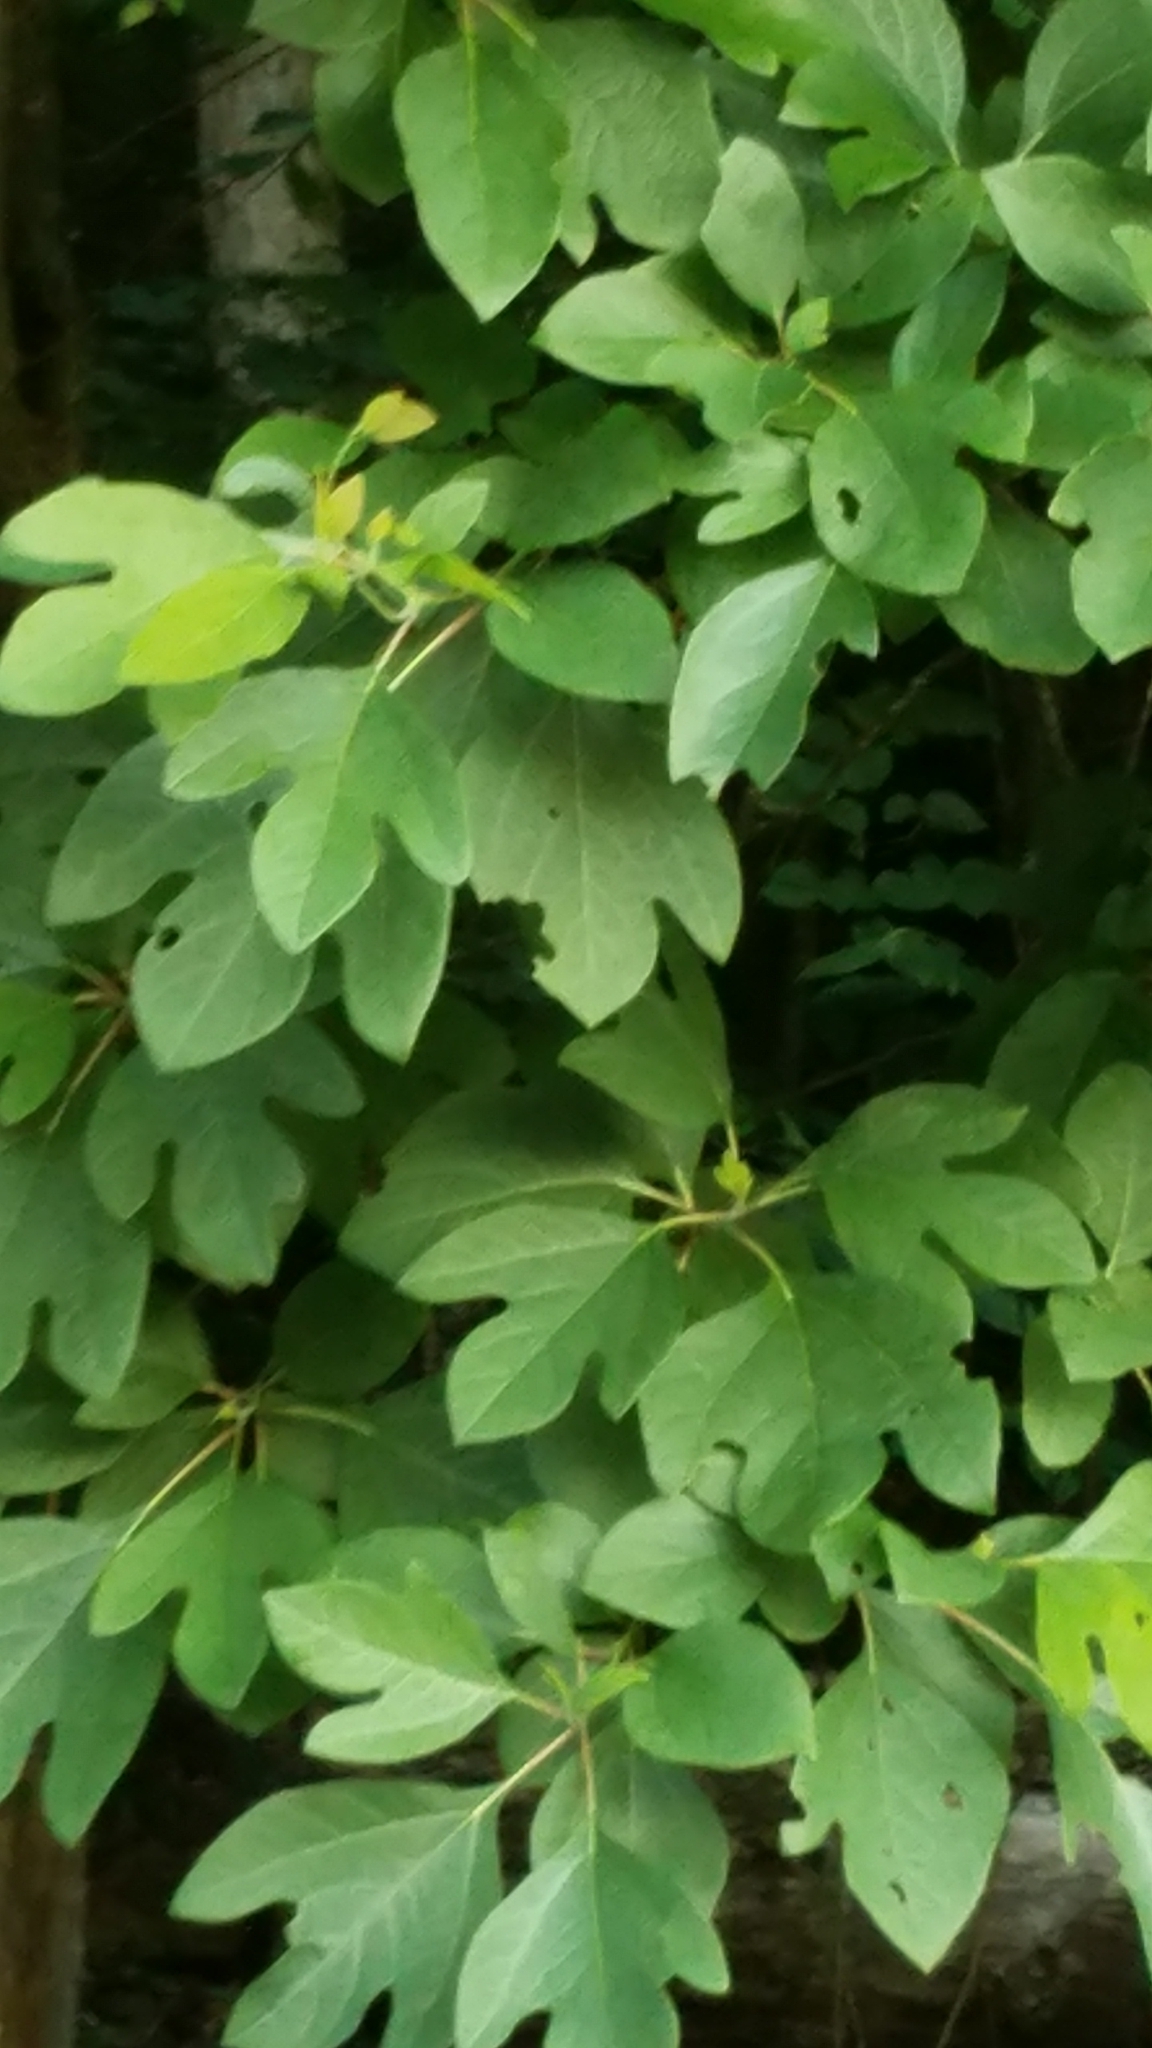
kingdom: Plantae
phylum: Tracheophyta
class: Magnoliopsida
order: Laurales
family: Lauraceae
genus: Sassafras
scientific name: Sassafras albidum
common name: Sassafras
